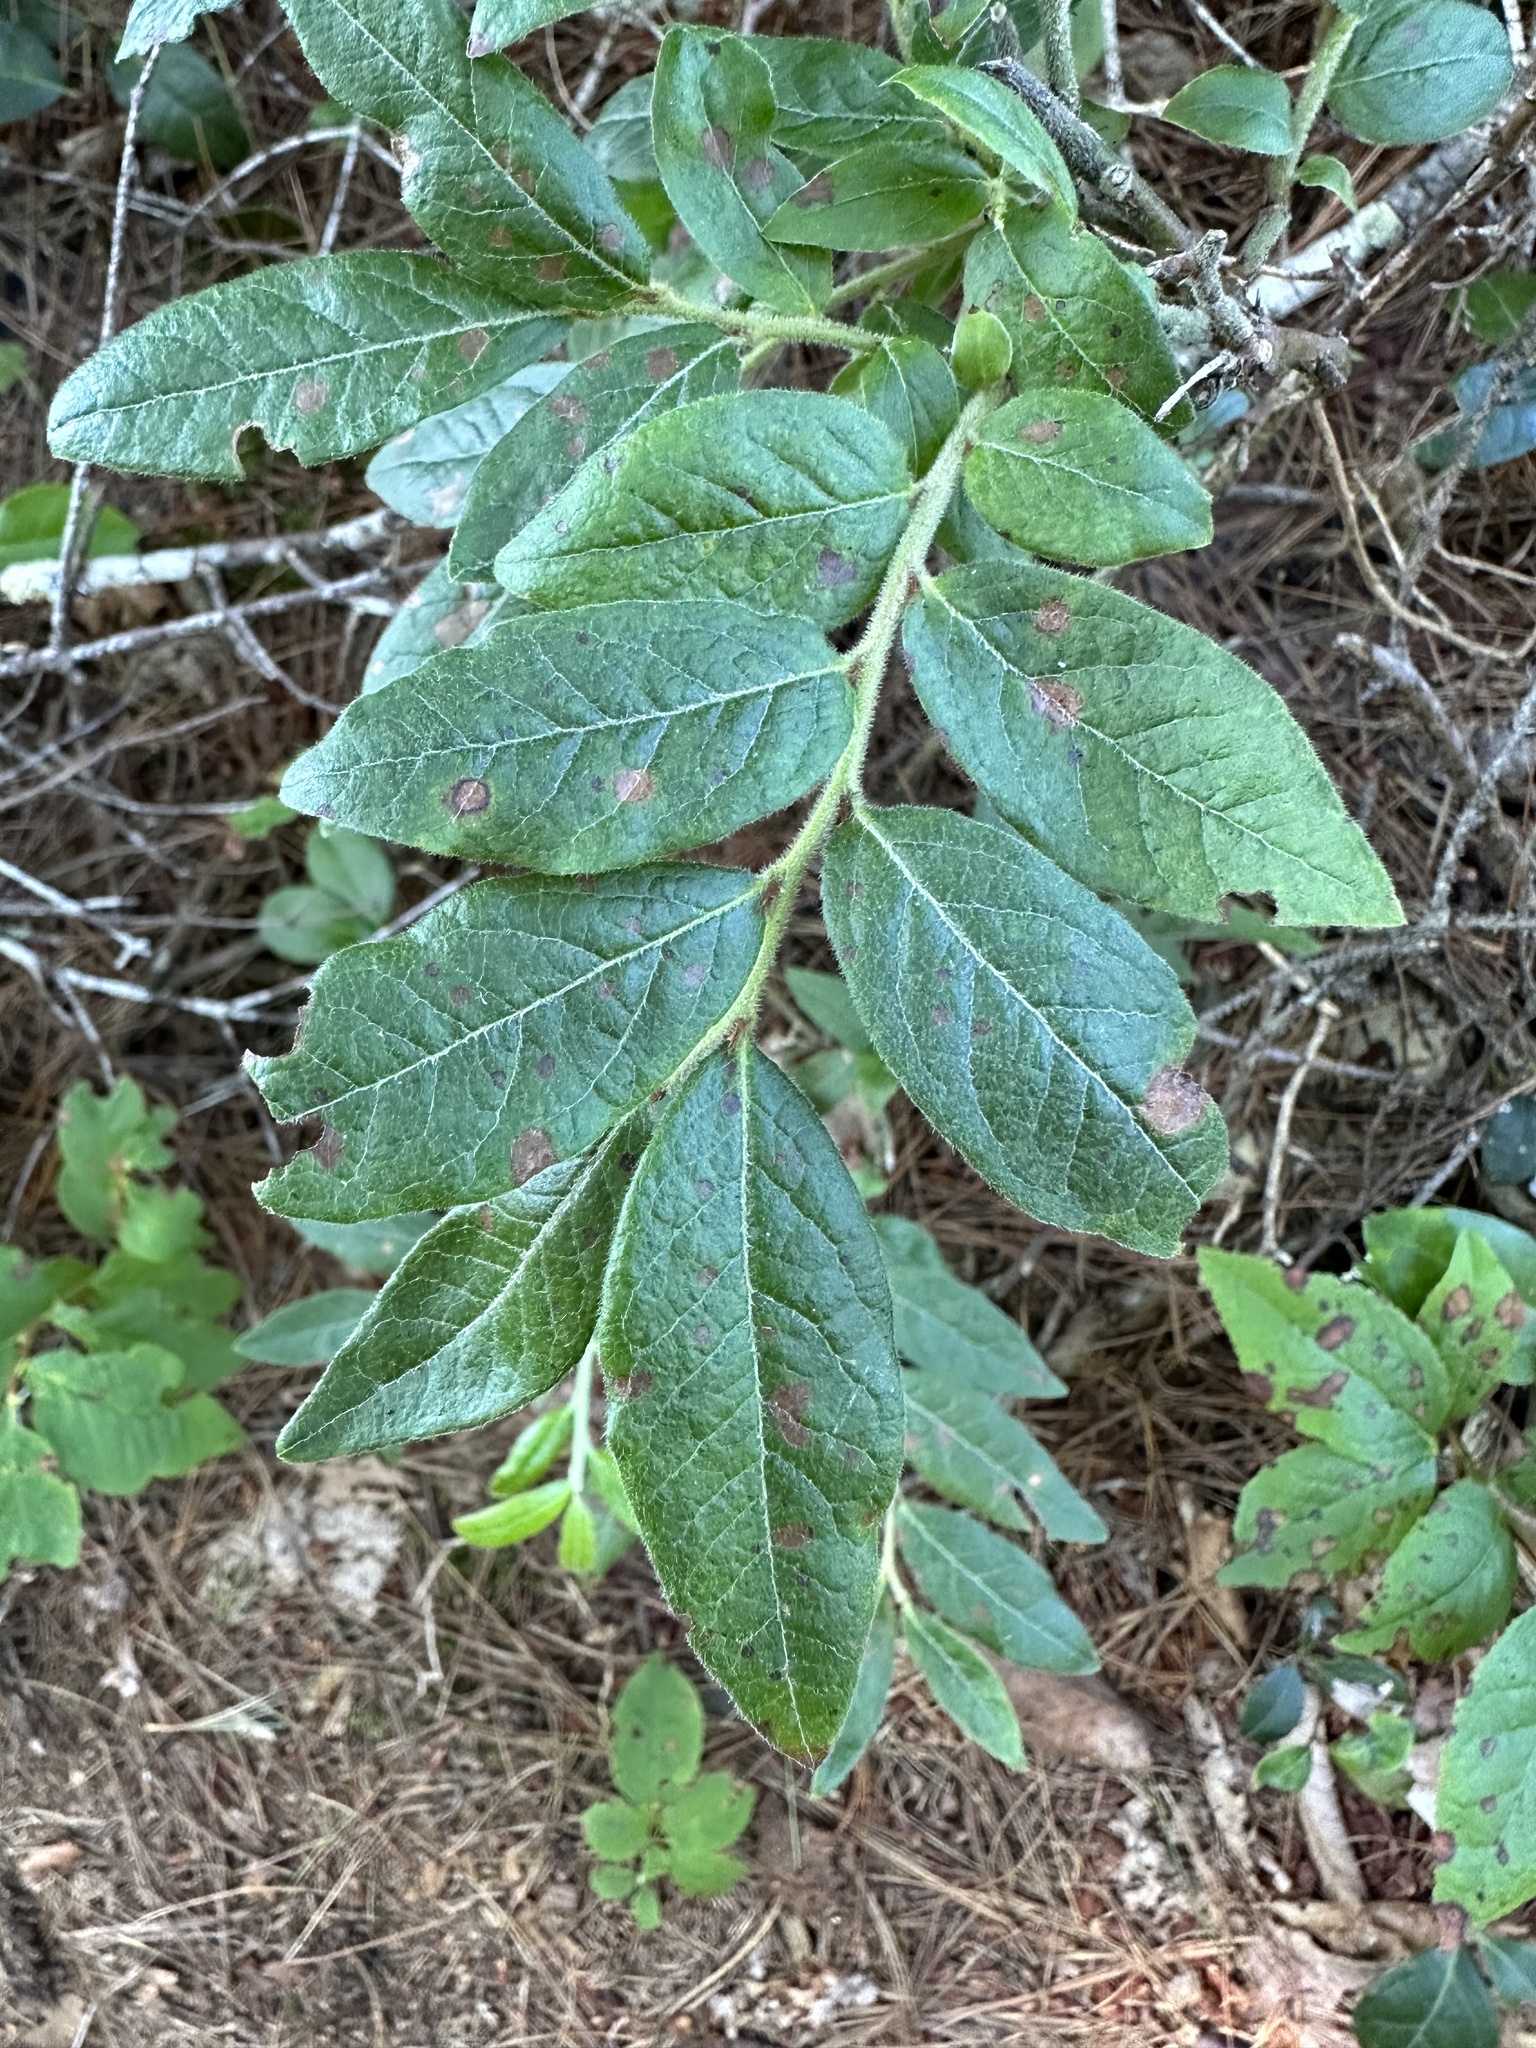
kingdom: Plantae
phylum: Tracheophyta
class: Magnoliopsida
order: Ericales
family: Ericaceae
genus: Vaccinium
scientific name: Vaccinium myrtilloides
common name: Canada blueberry
